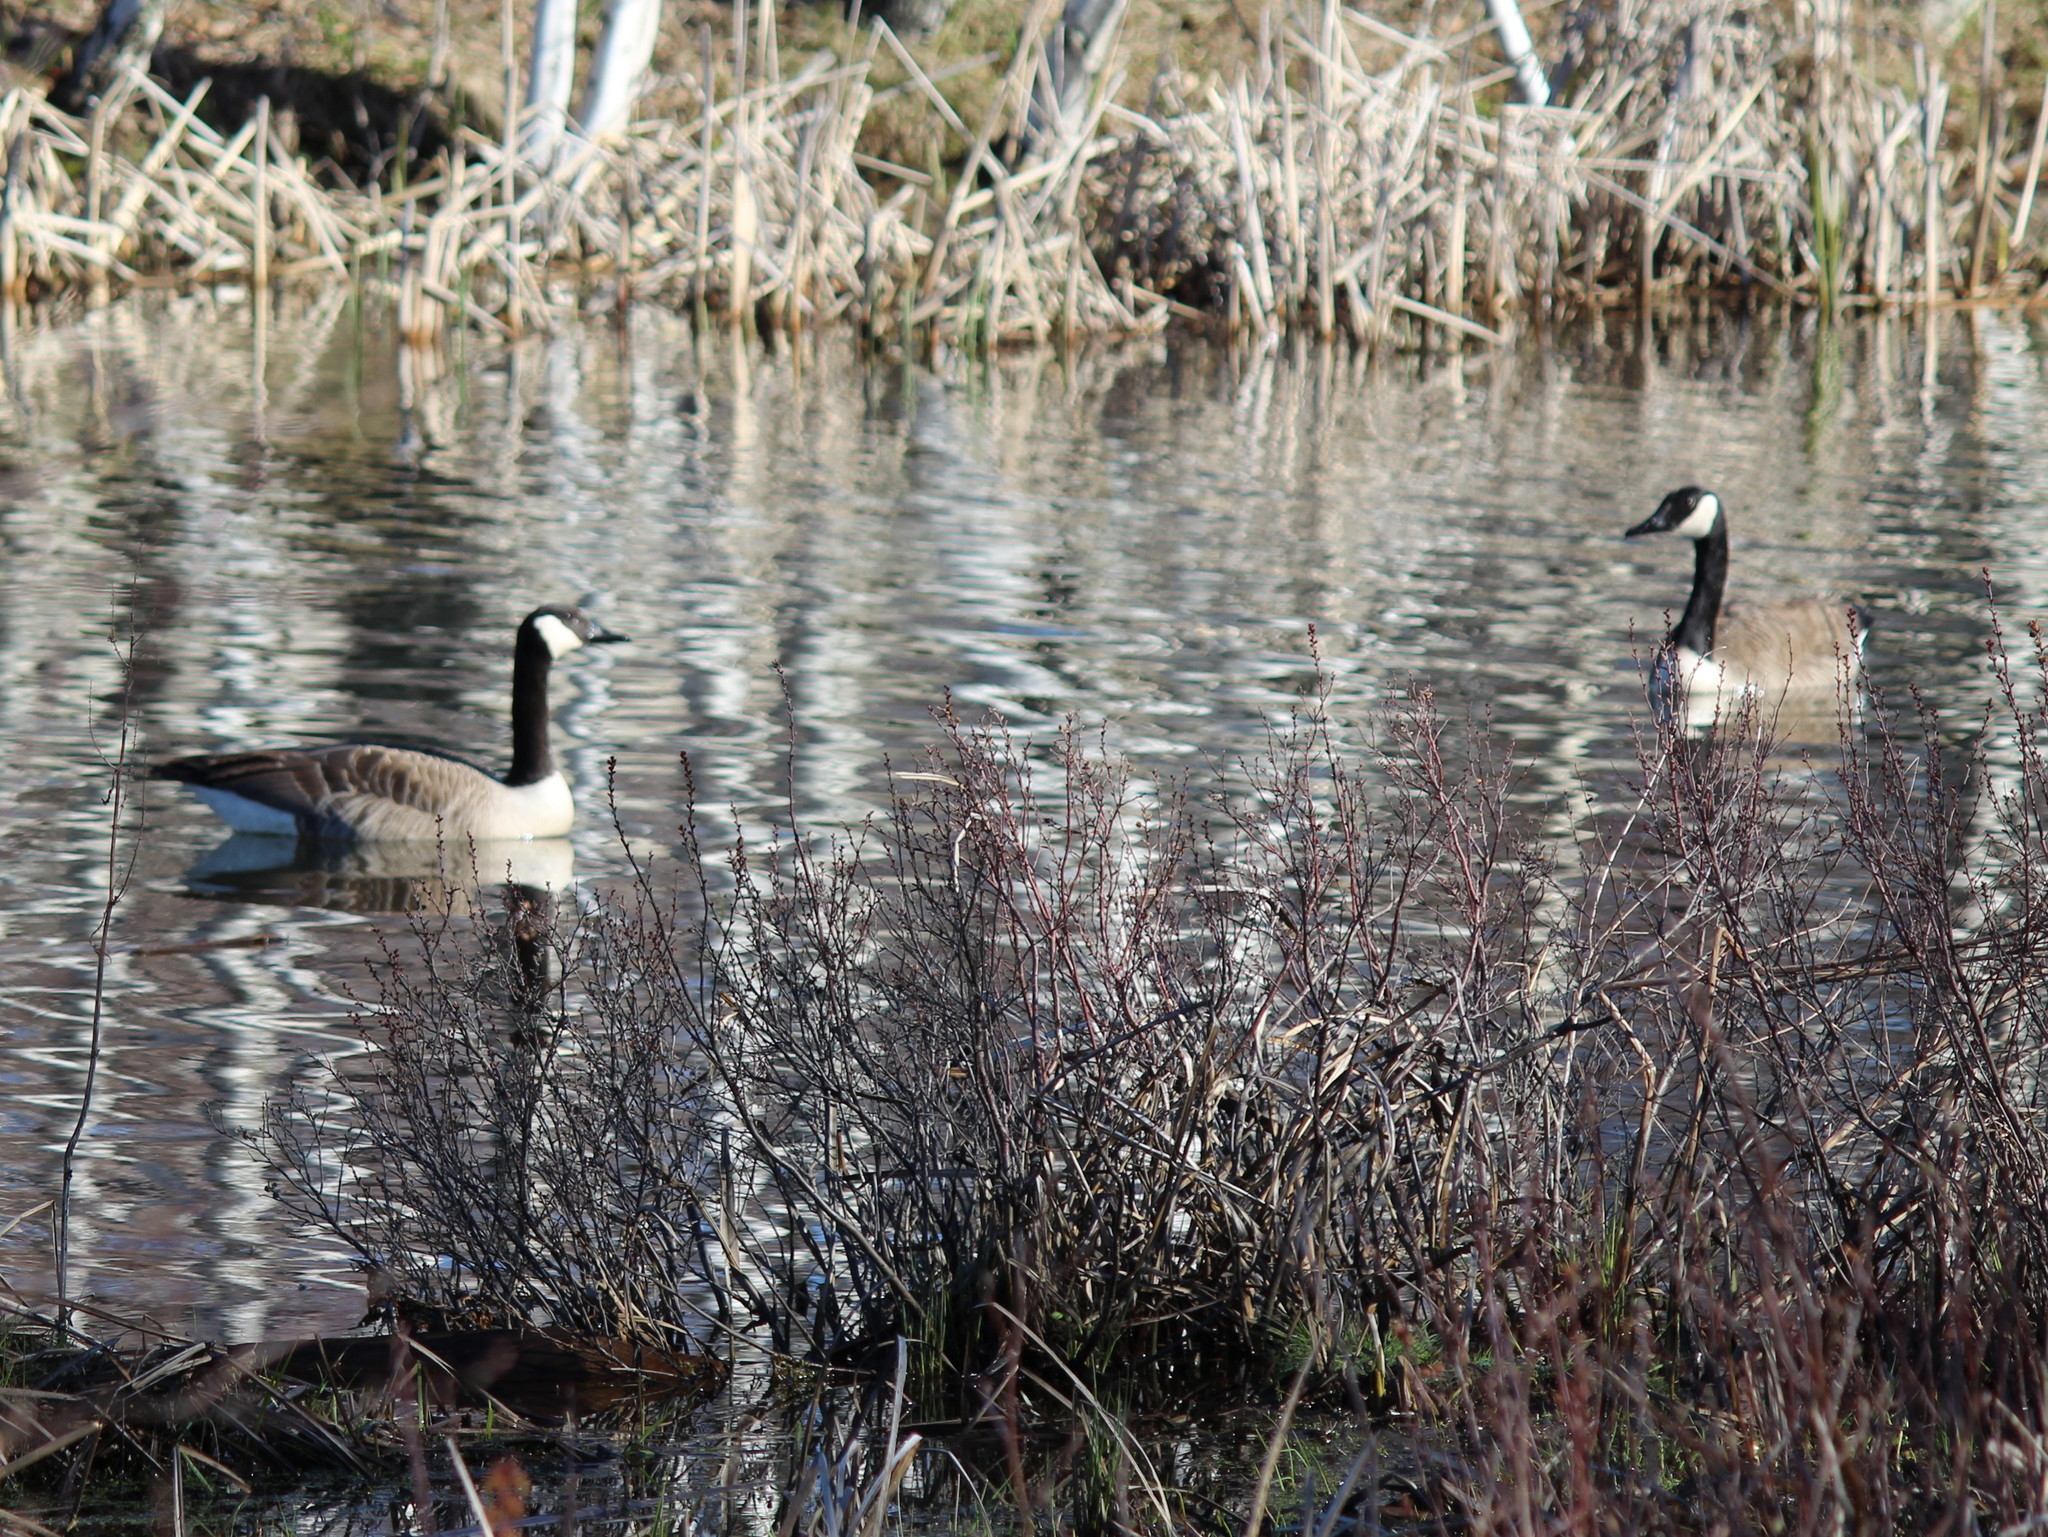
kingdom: Animalia
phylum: Chordata
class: Aves
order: Anseriformes
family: Anatidae
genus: Branta
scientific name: Branta canadensis
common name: Canada goose
